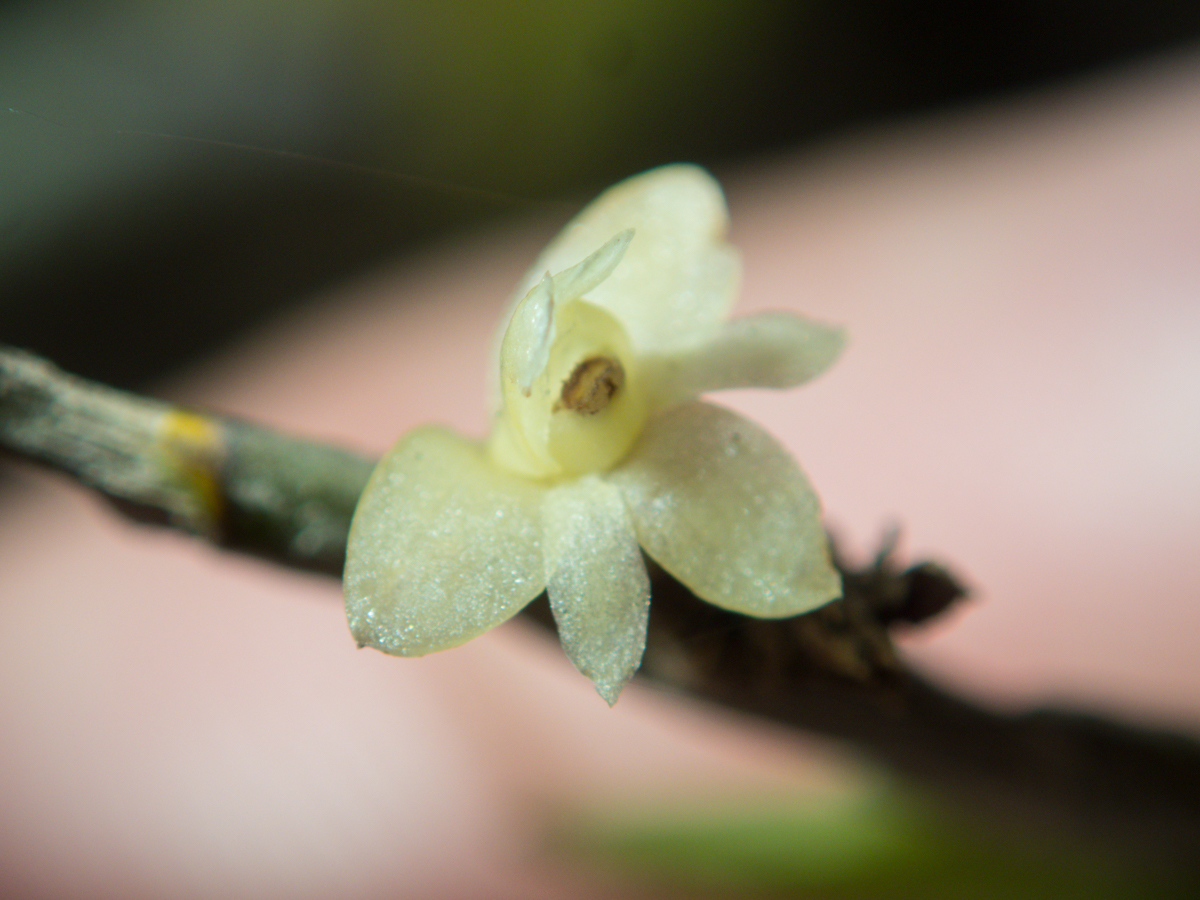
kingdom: Plantae
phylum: Tracheophyta
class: Liliopsida
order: Asparagales
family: Orchidaceae
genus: Dendrobium
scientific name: Dendrobium aloifolium
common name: Aloe-like dendrobium
